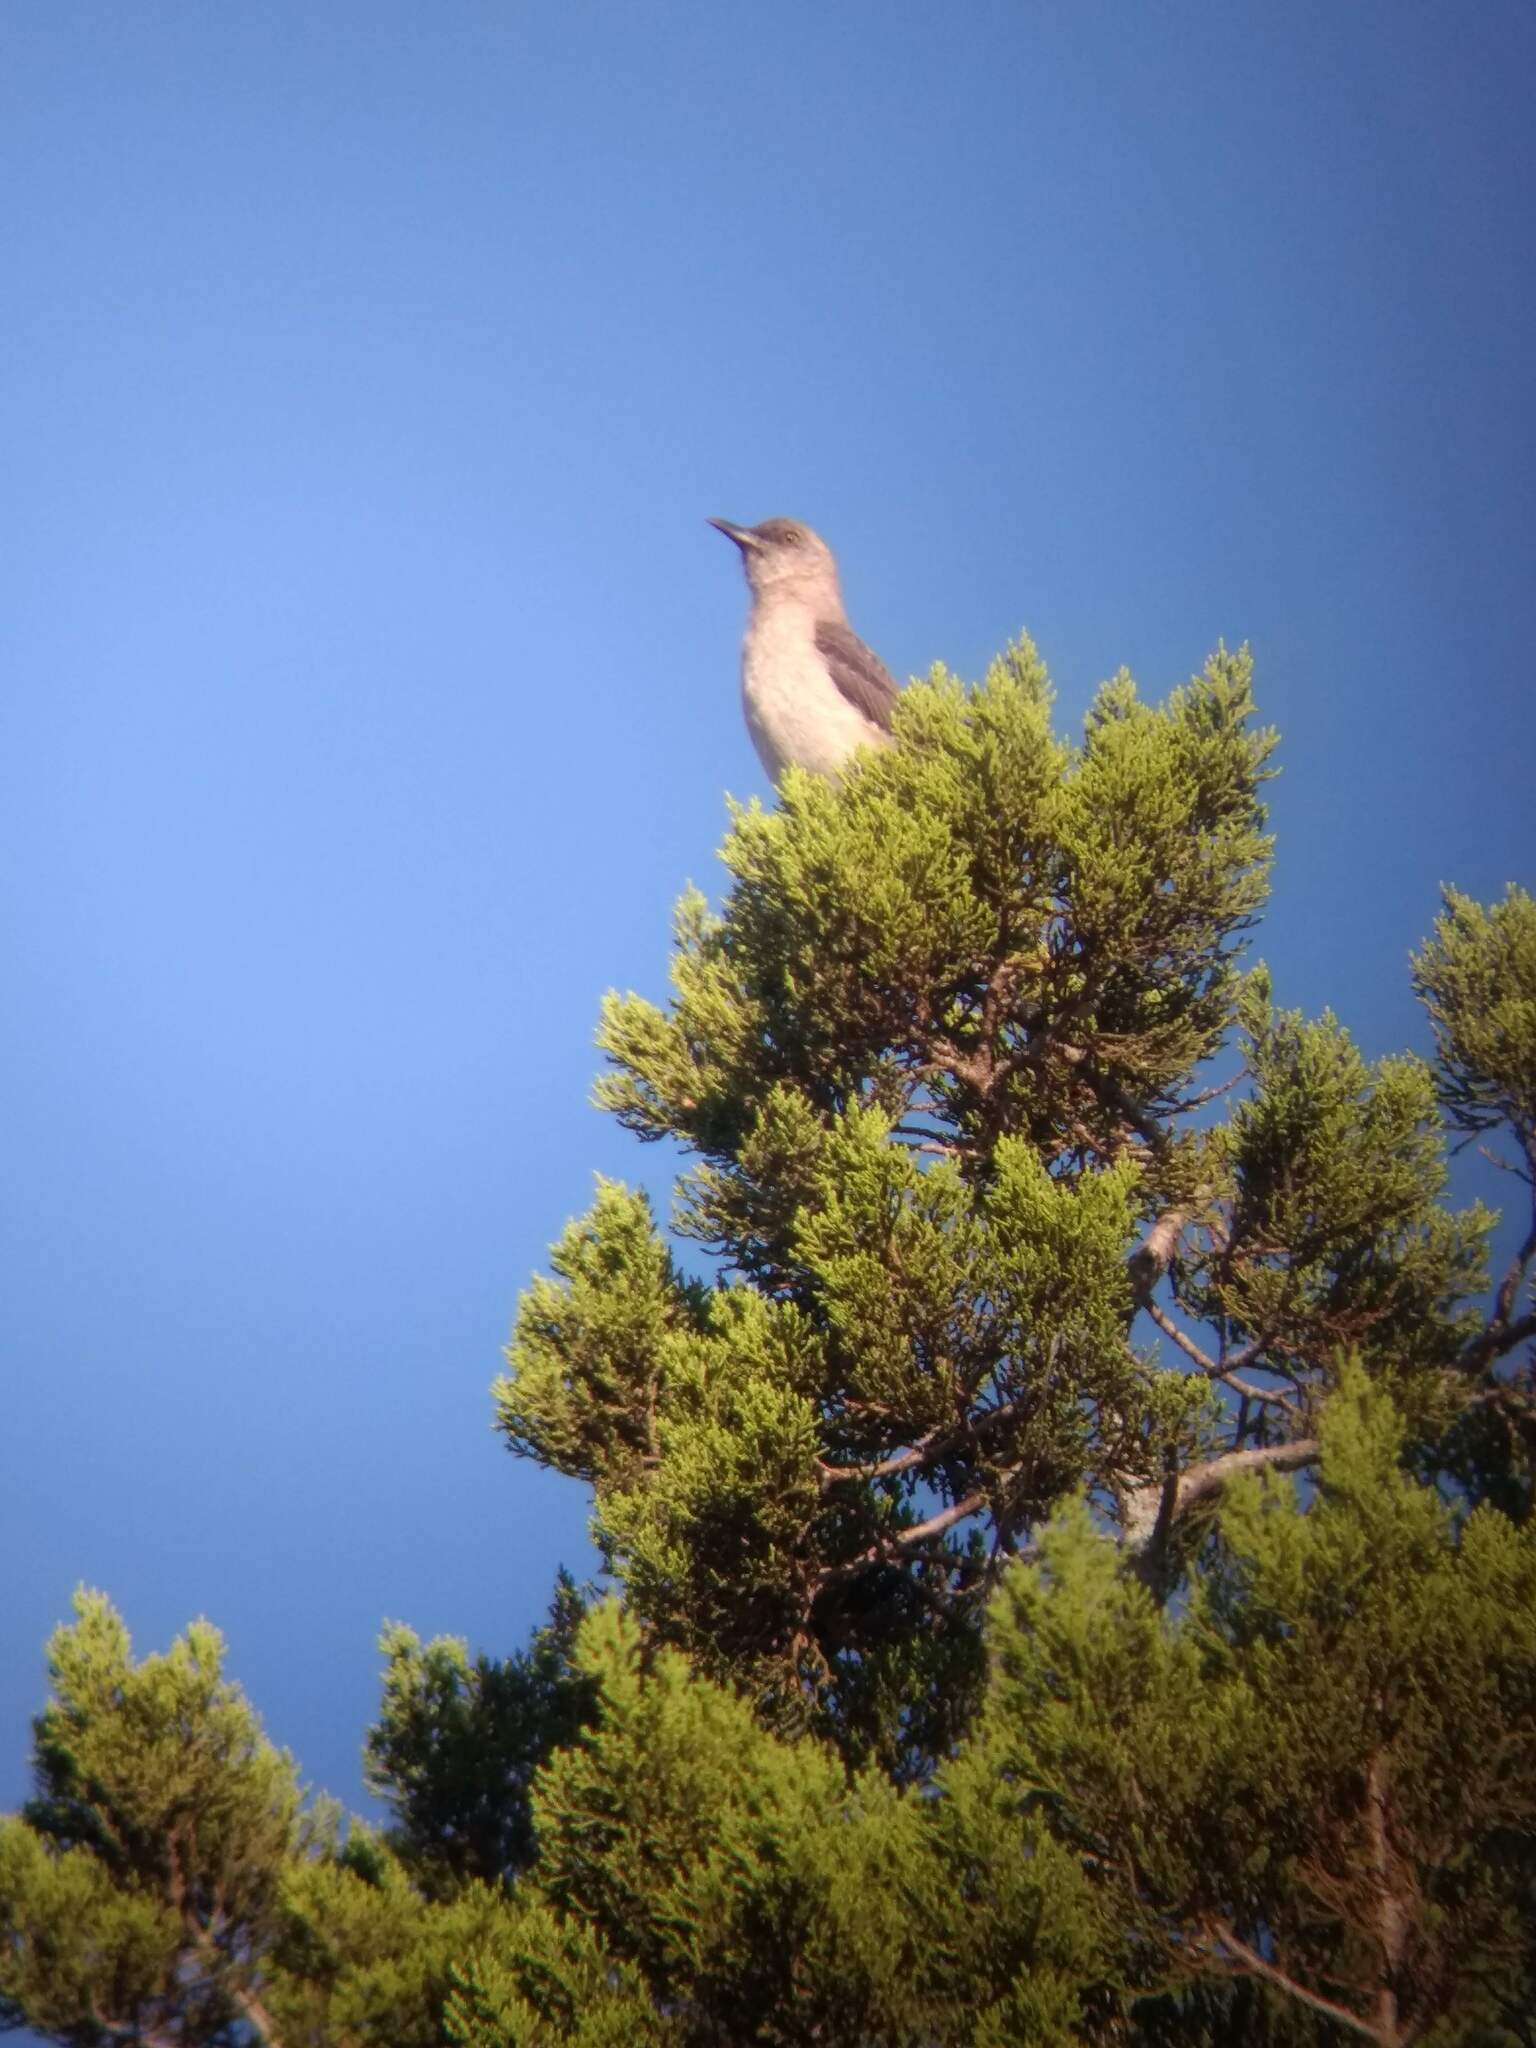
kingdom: Animalia
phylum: Chordata
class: Aves
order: Passeriformes
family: Mimidae
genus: Mimus
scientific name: Mimus polyglottos
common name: Northern mockingbird
